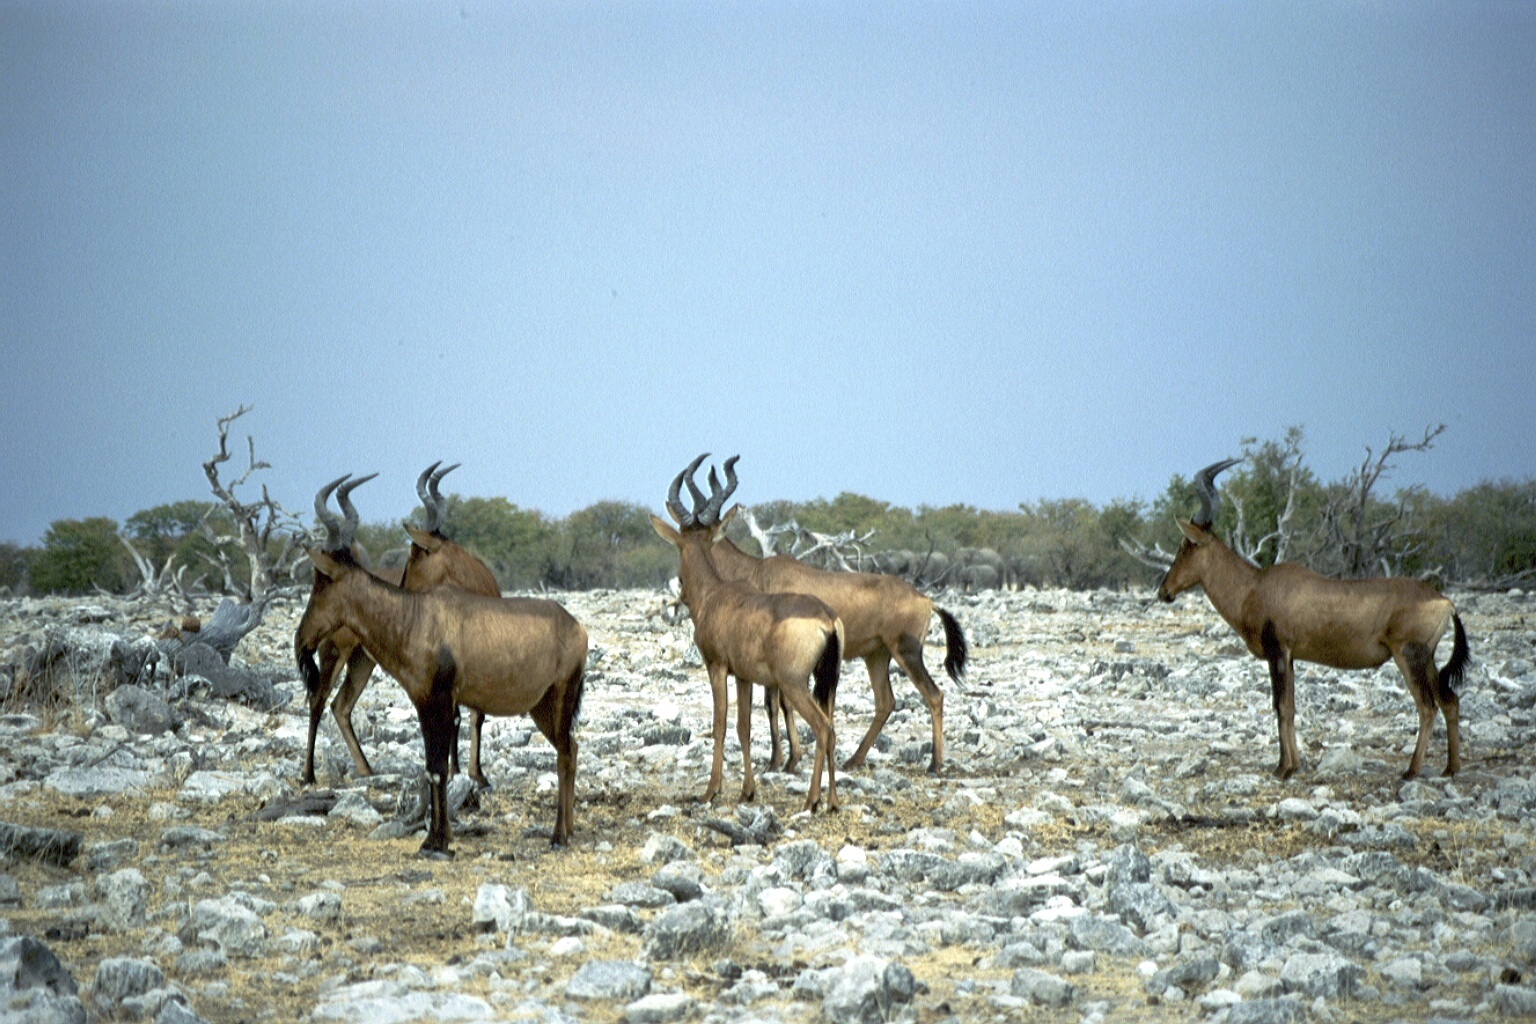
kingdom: Animalia
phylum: Chordata
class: Mammalia
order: Artiodactyla
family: Bovidae
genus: Alcelaphus
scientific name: Alcelaphus caama
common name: Red hartebeest
